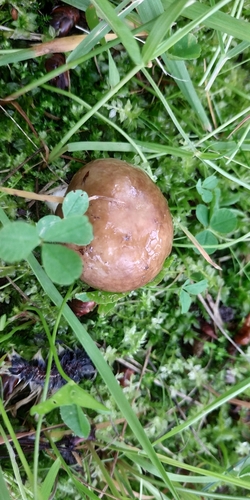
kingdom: Fungi
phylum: Basidiomycota
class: Agaricomycetes
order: Russulales
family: Russulaceae
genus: Russula
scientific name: Russula
